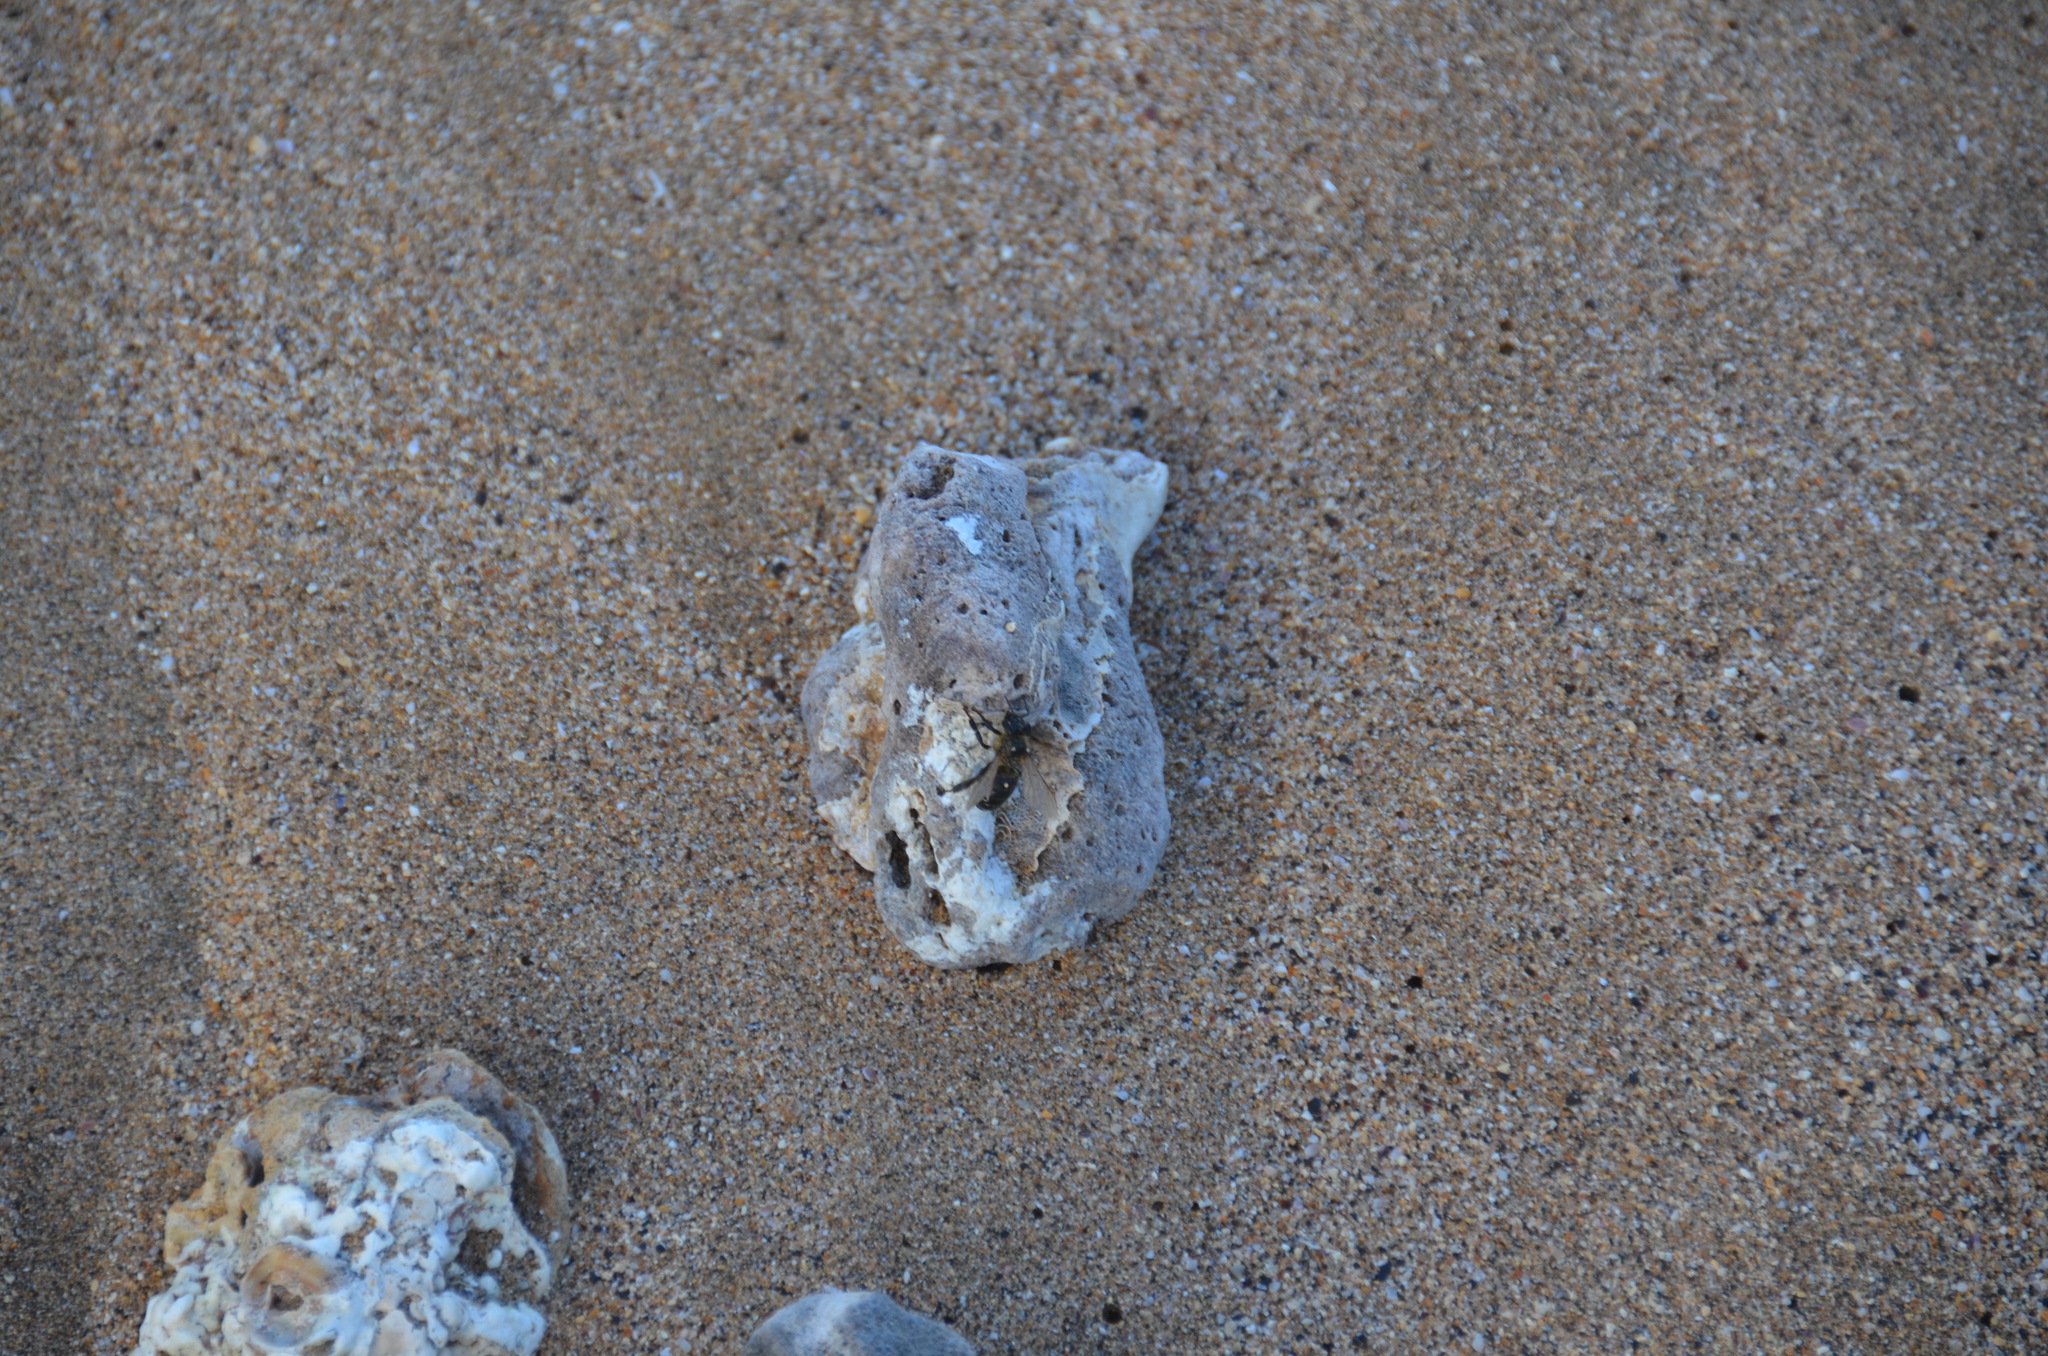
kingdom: Animalia
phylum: Arthropoda
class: Insecta
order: Hymenoptera
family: Apidae
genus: Apis
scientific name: Apis mellifera
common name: Honey bee
